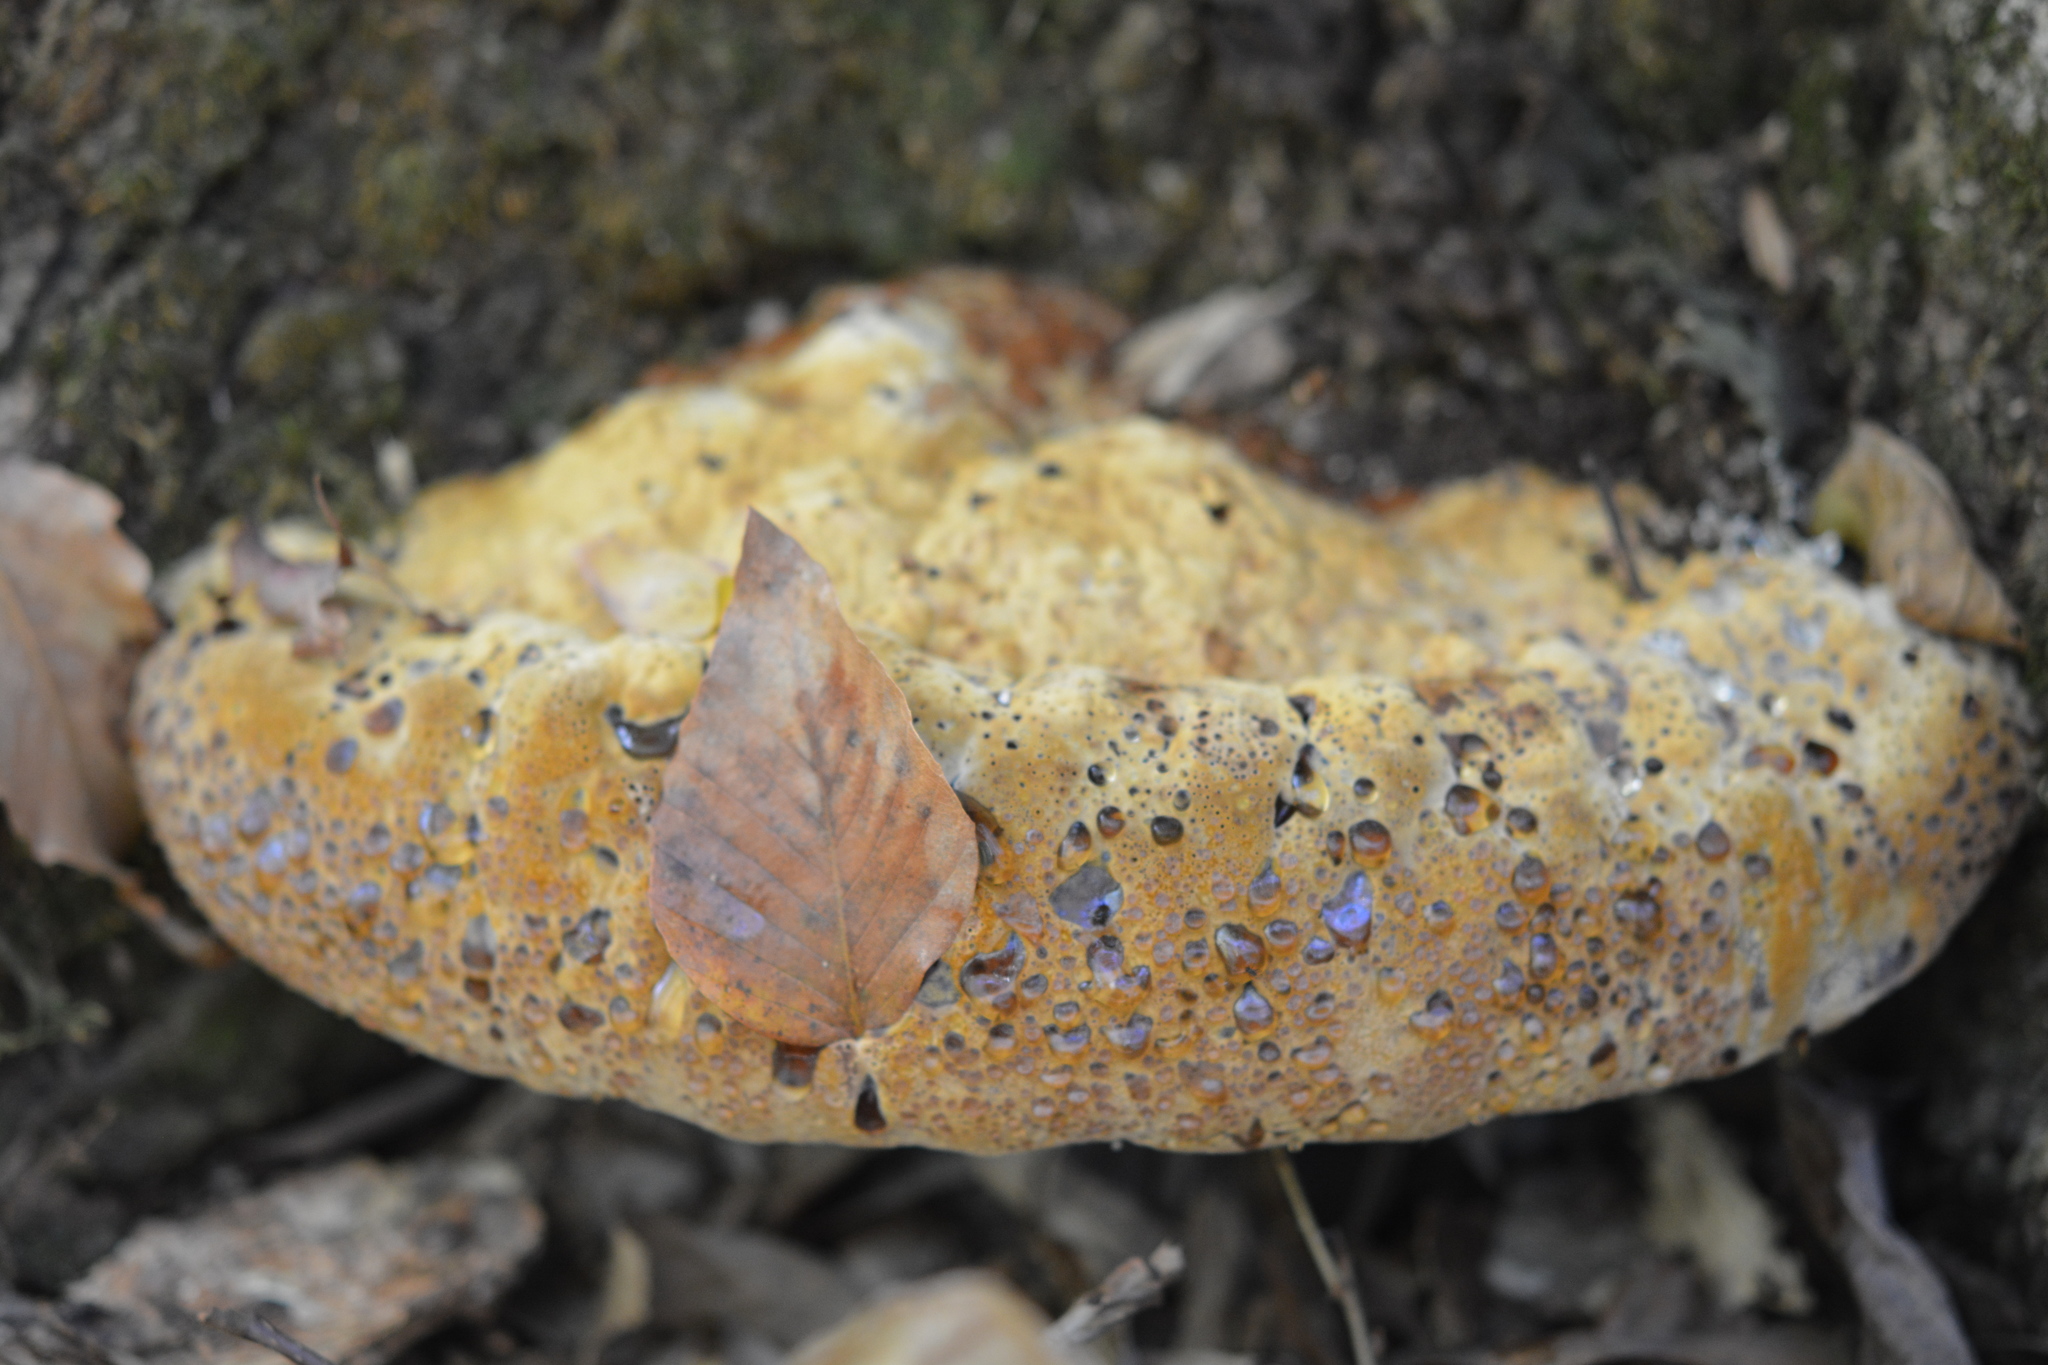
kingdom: Fungi
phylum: Basidiomycota
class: Agaricomycetes
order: Hymenochaetales
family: Hymenochaetaceae
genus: Pseudoinonotus
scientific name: Pseudoinonotus dryadeus
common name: Oak bracket
